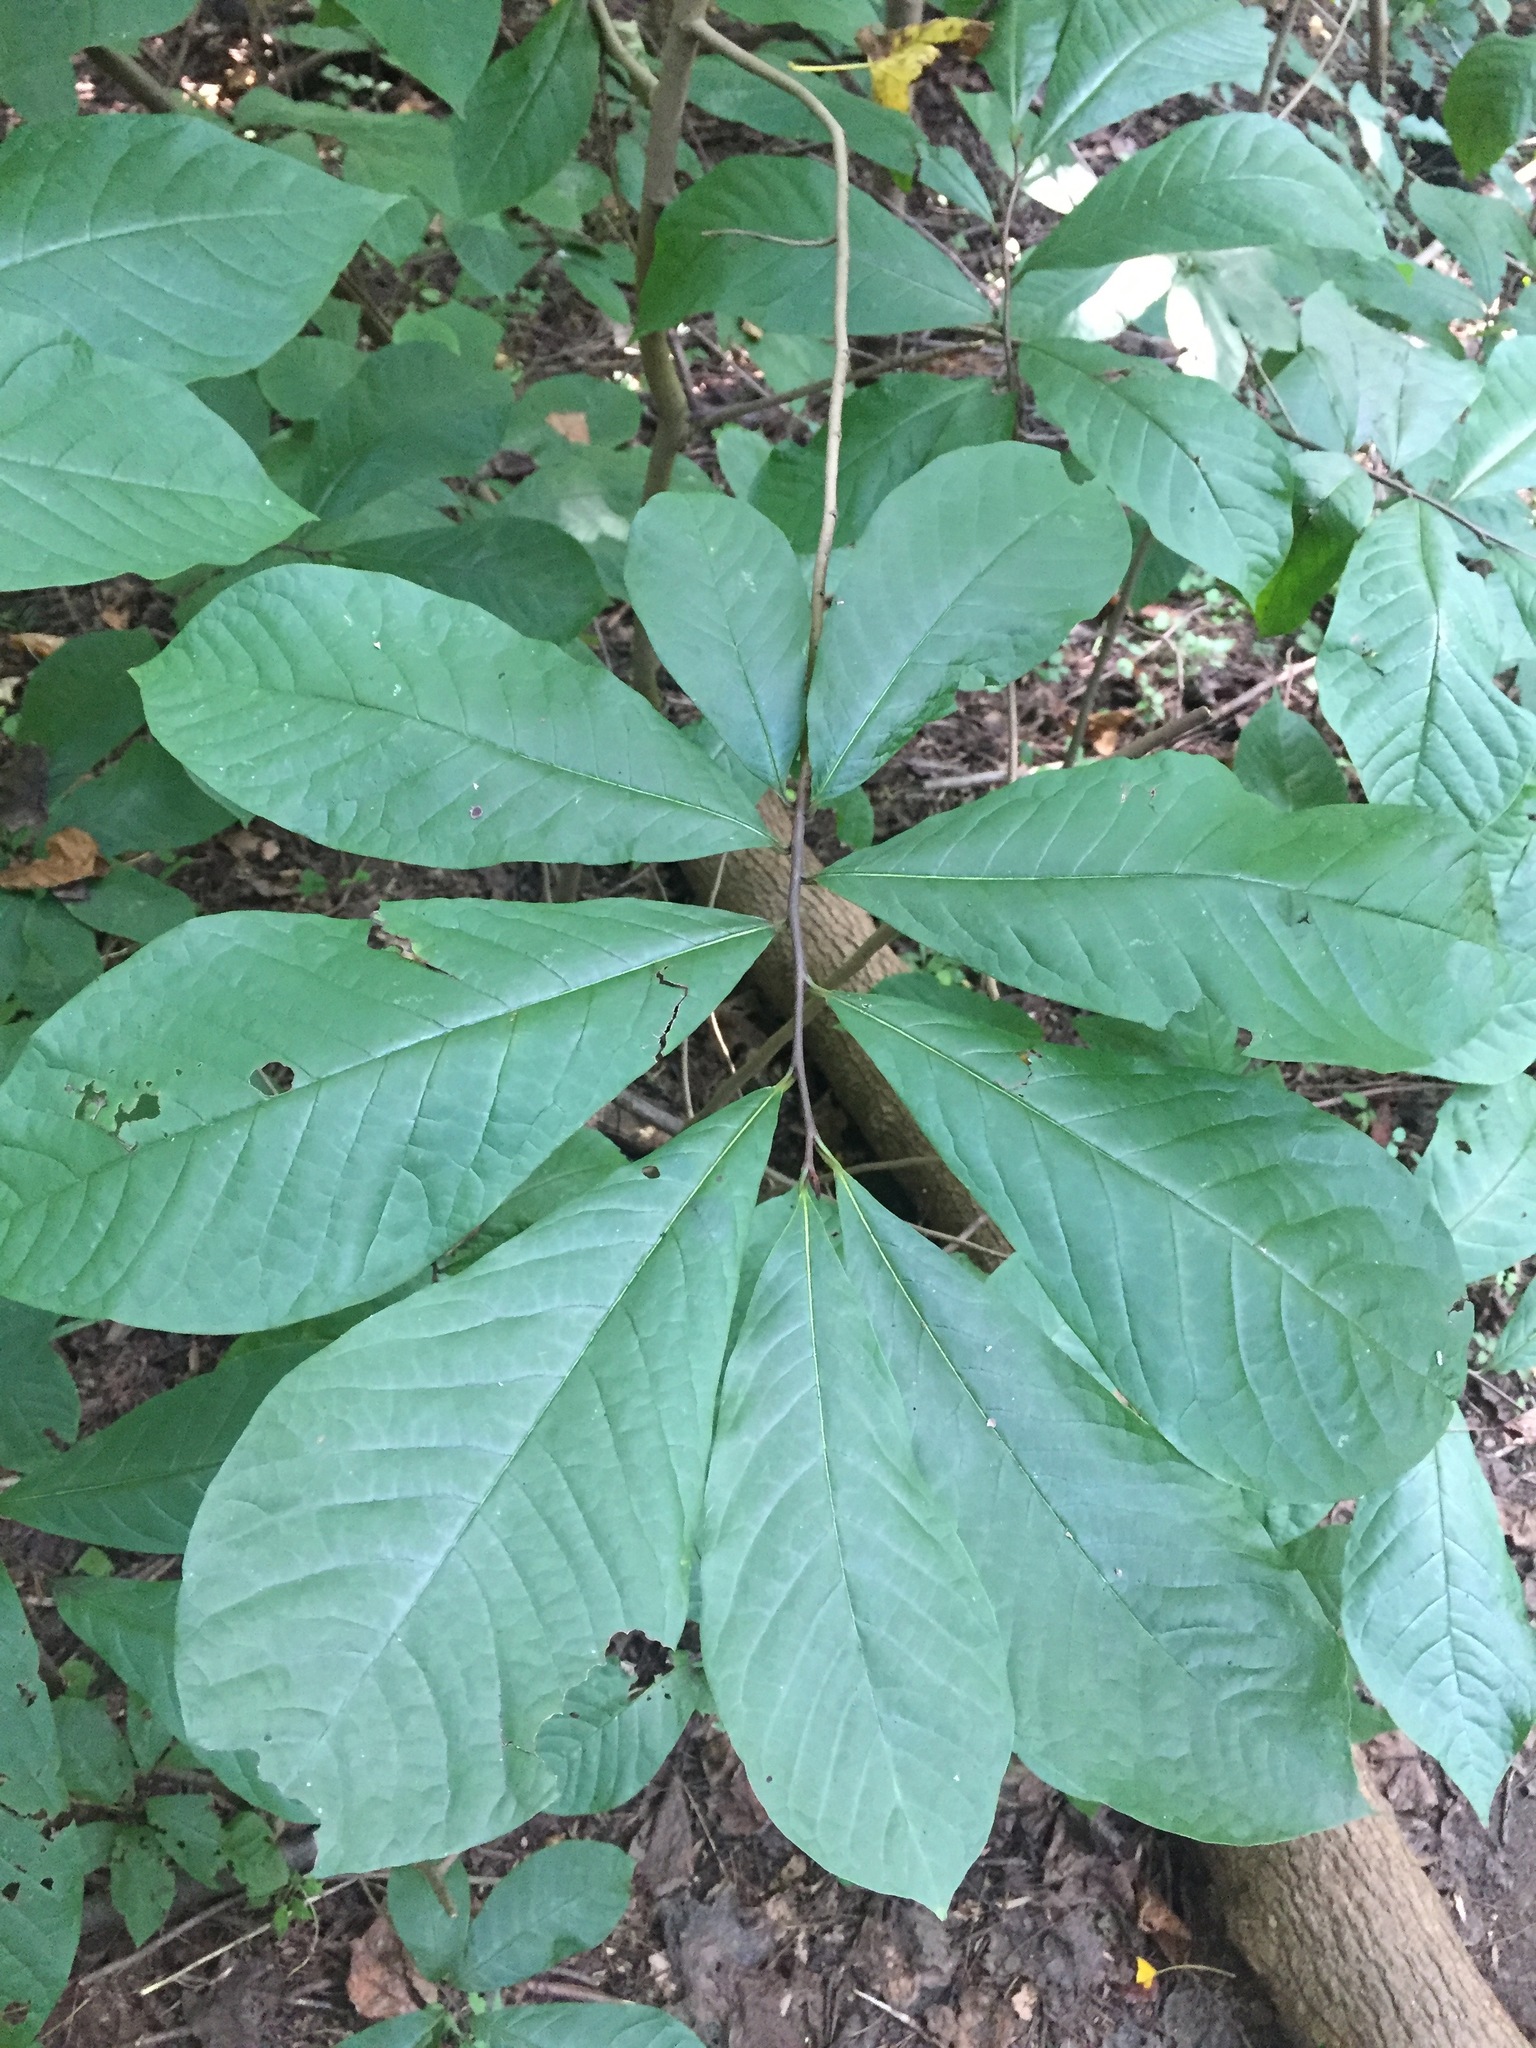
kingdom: Plantae
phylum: Tracheophyta
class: Magnoliopsida
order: Magnoliales
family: Annonaceae
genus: Asimina
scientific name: Asimina triloba
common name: Dog-banana
